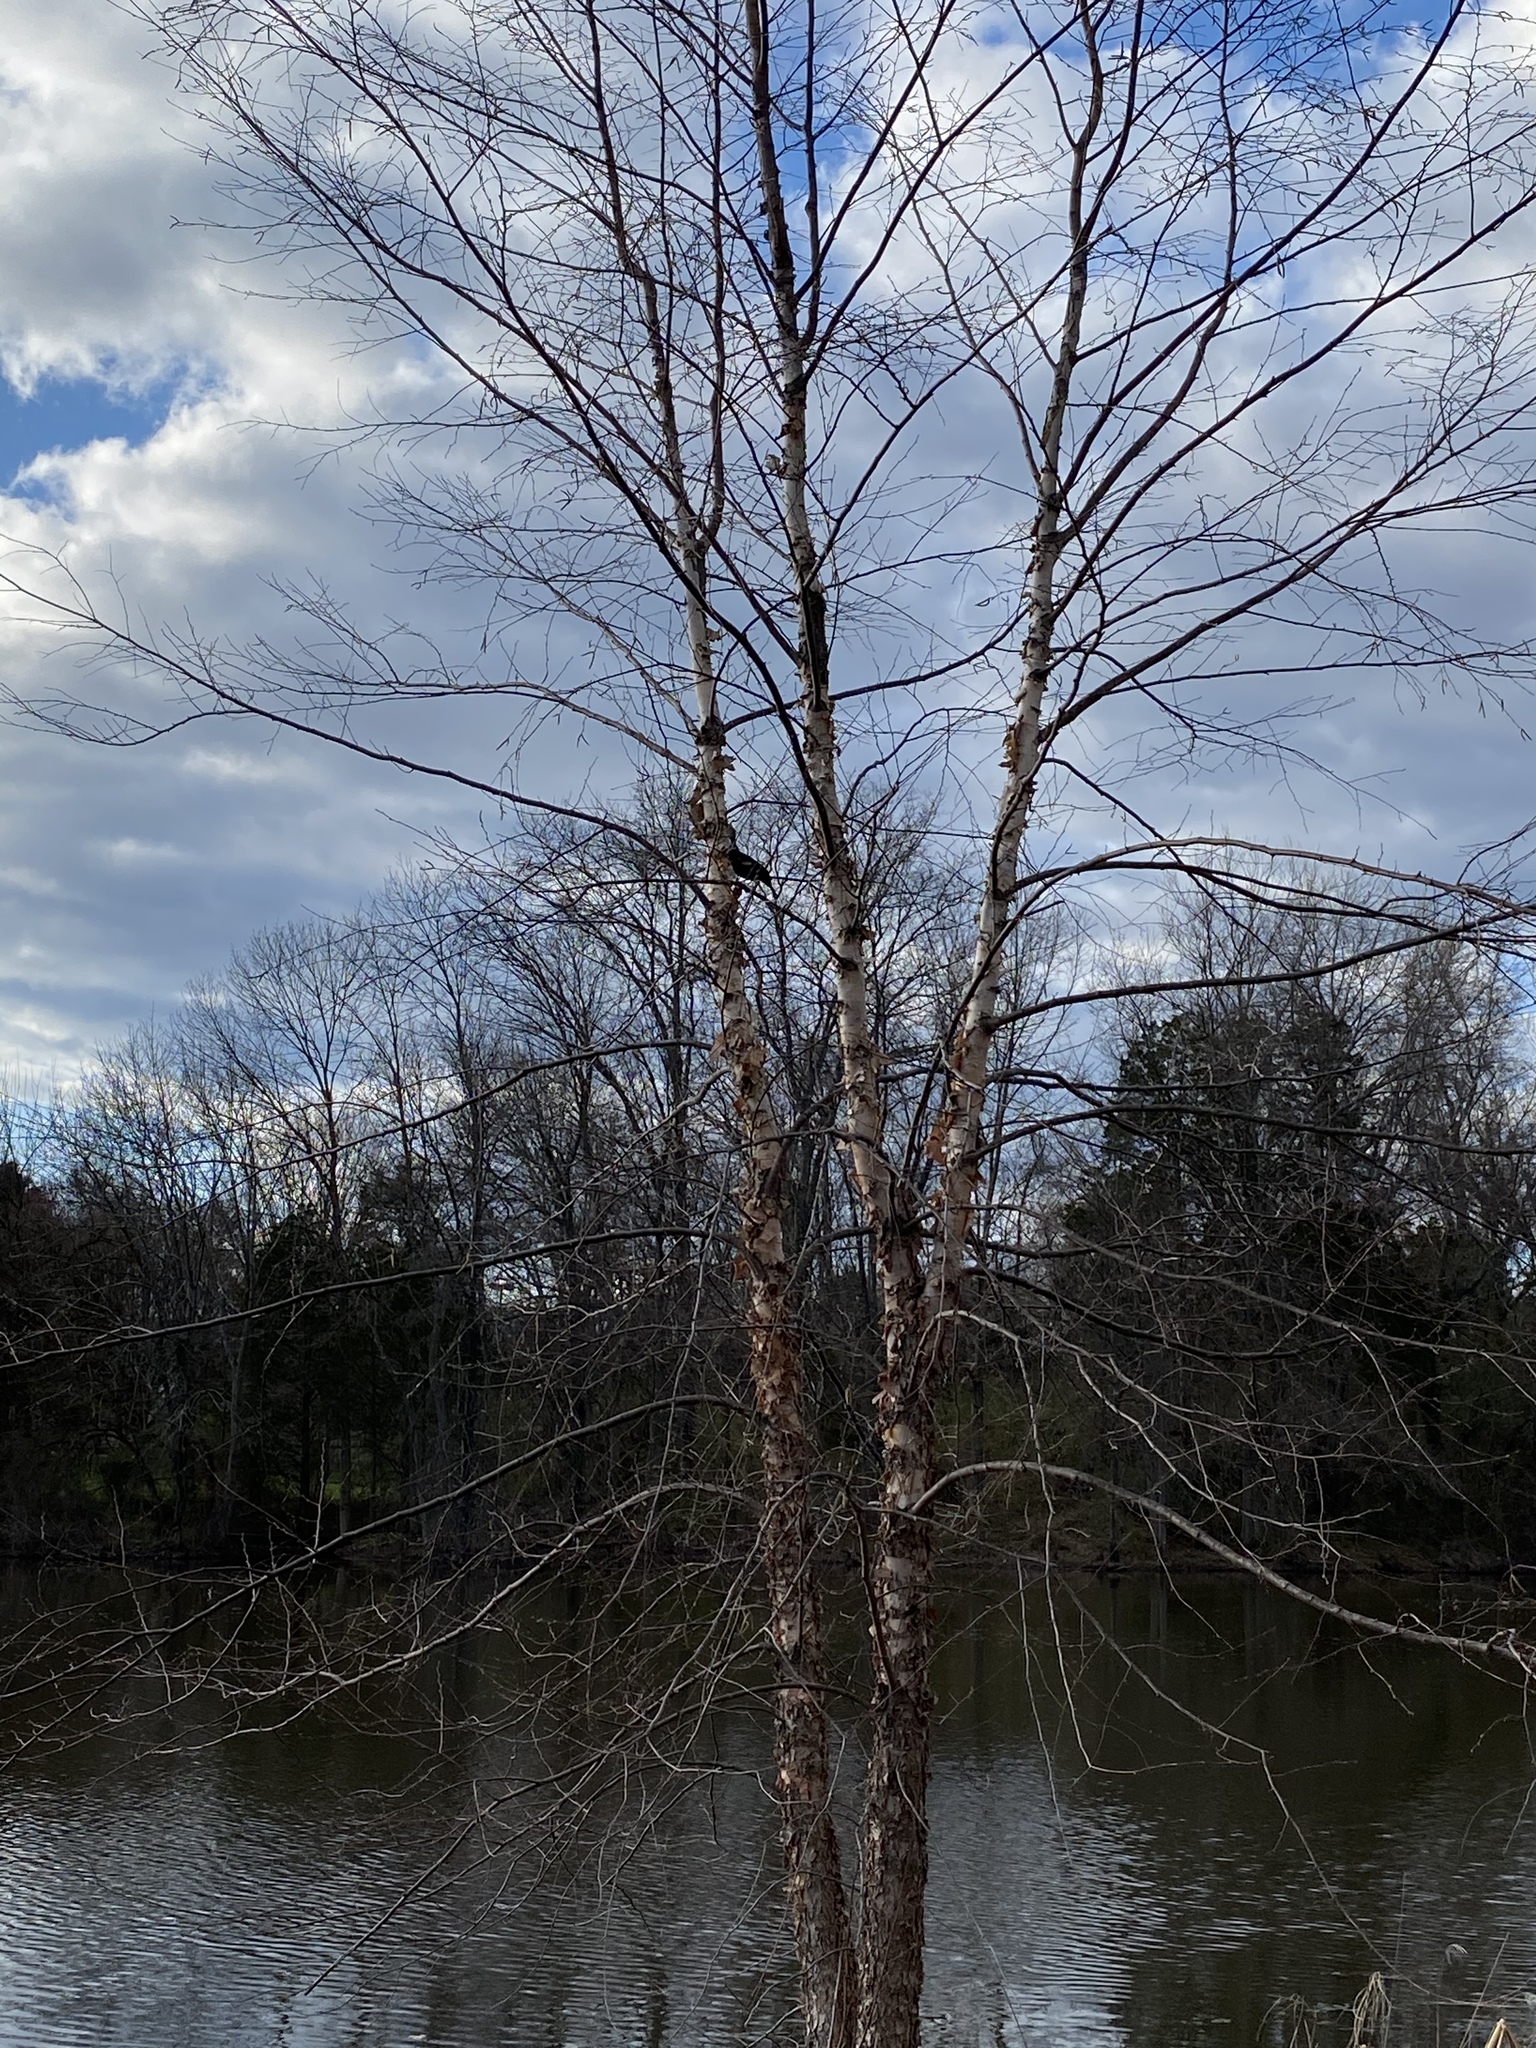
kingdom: Animalia
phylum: Chordata
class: Aves
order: Passeriformes
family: Icteridae
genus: Agelaius
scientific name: Agelaius phoeniceus
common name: Red-winged blackbird
